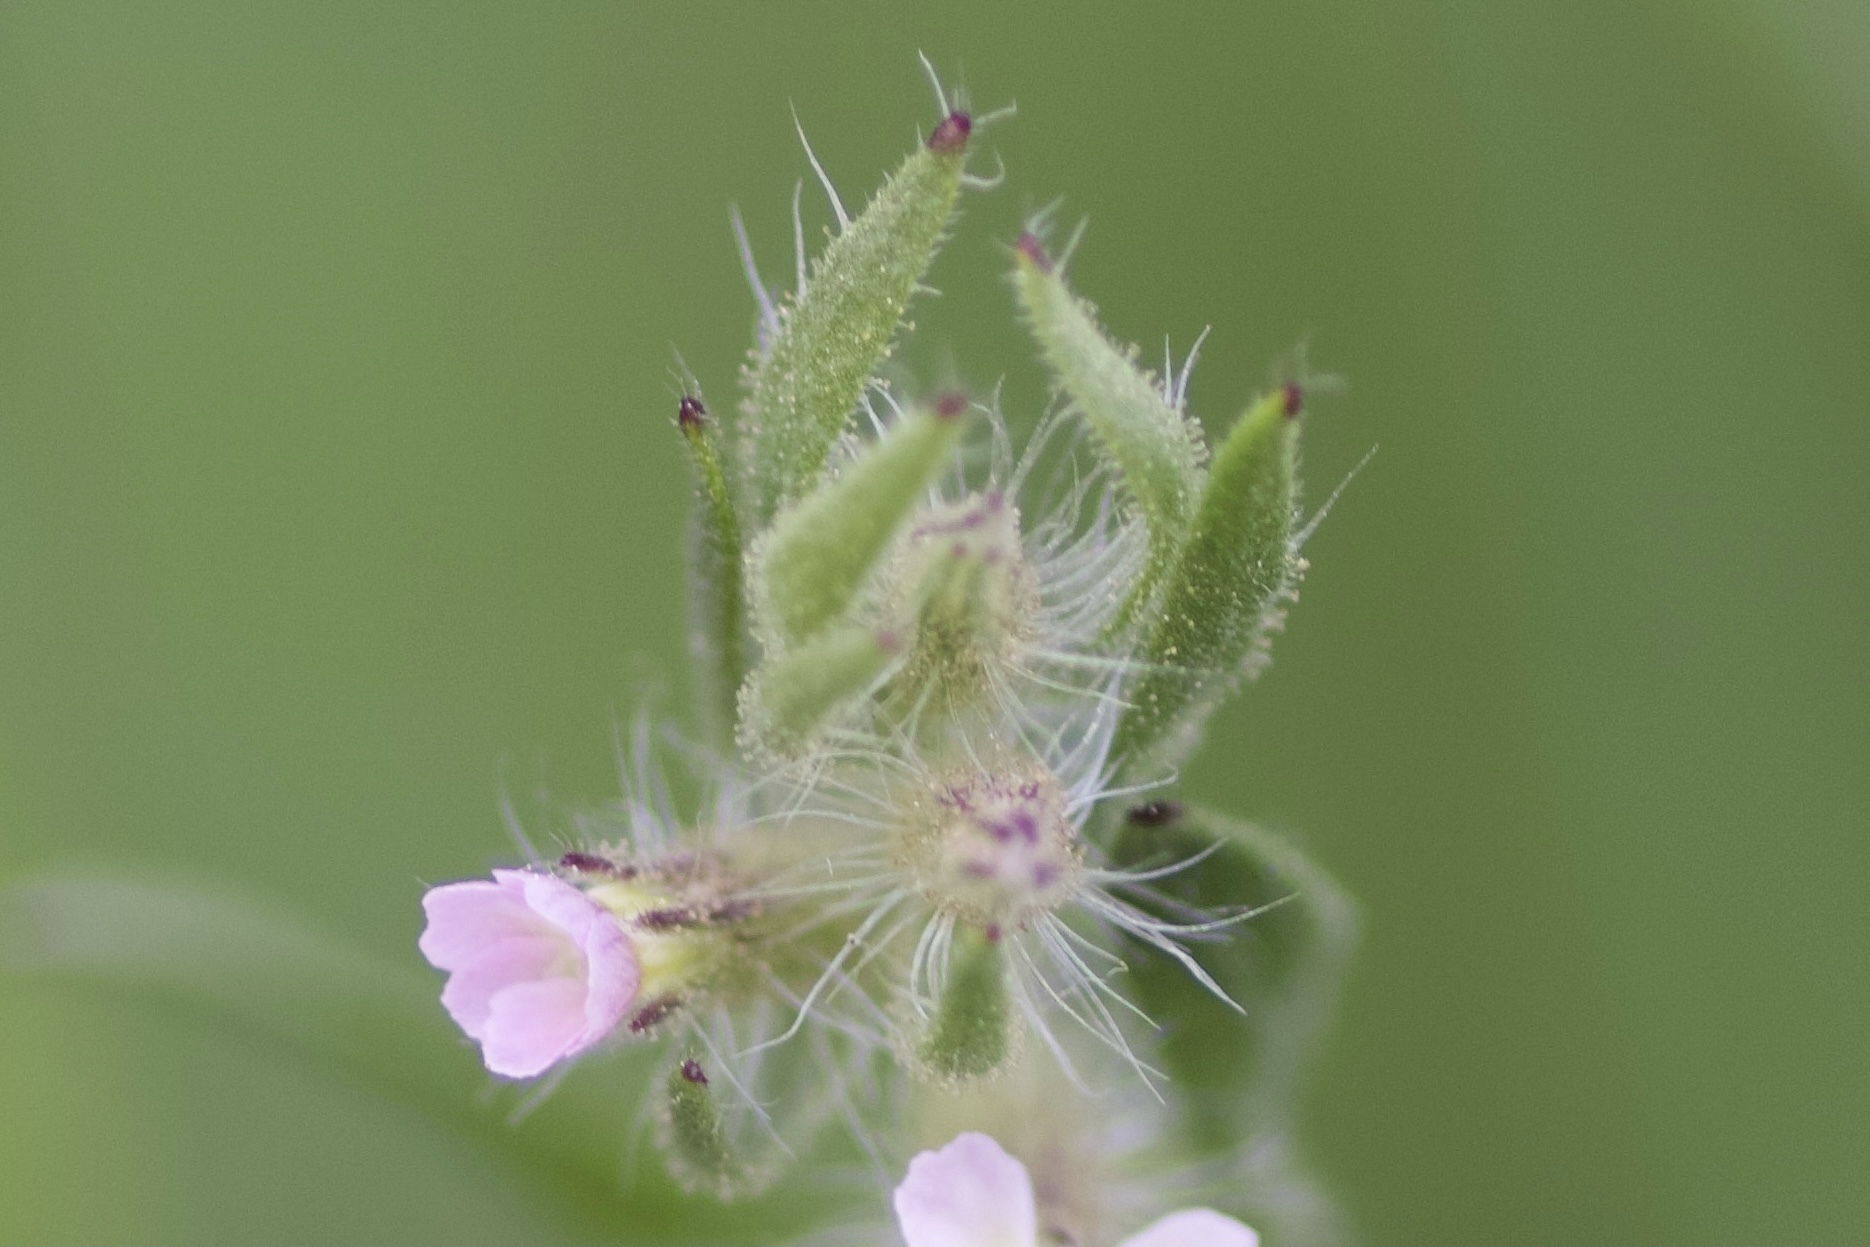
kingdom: Plantae
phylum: Tracheophyta
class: Magnoliopsida
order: Caryophyllales
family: Caryophyllaceae
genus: Silene
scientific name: Silene gallica
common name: Small-flowered catchfly
